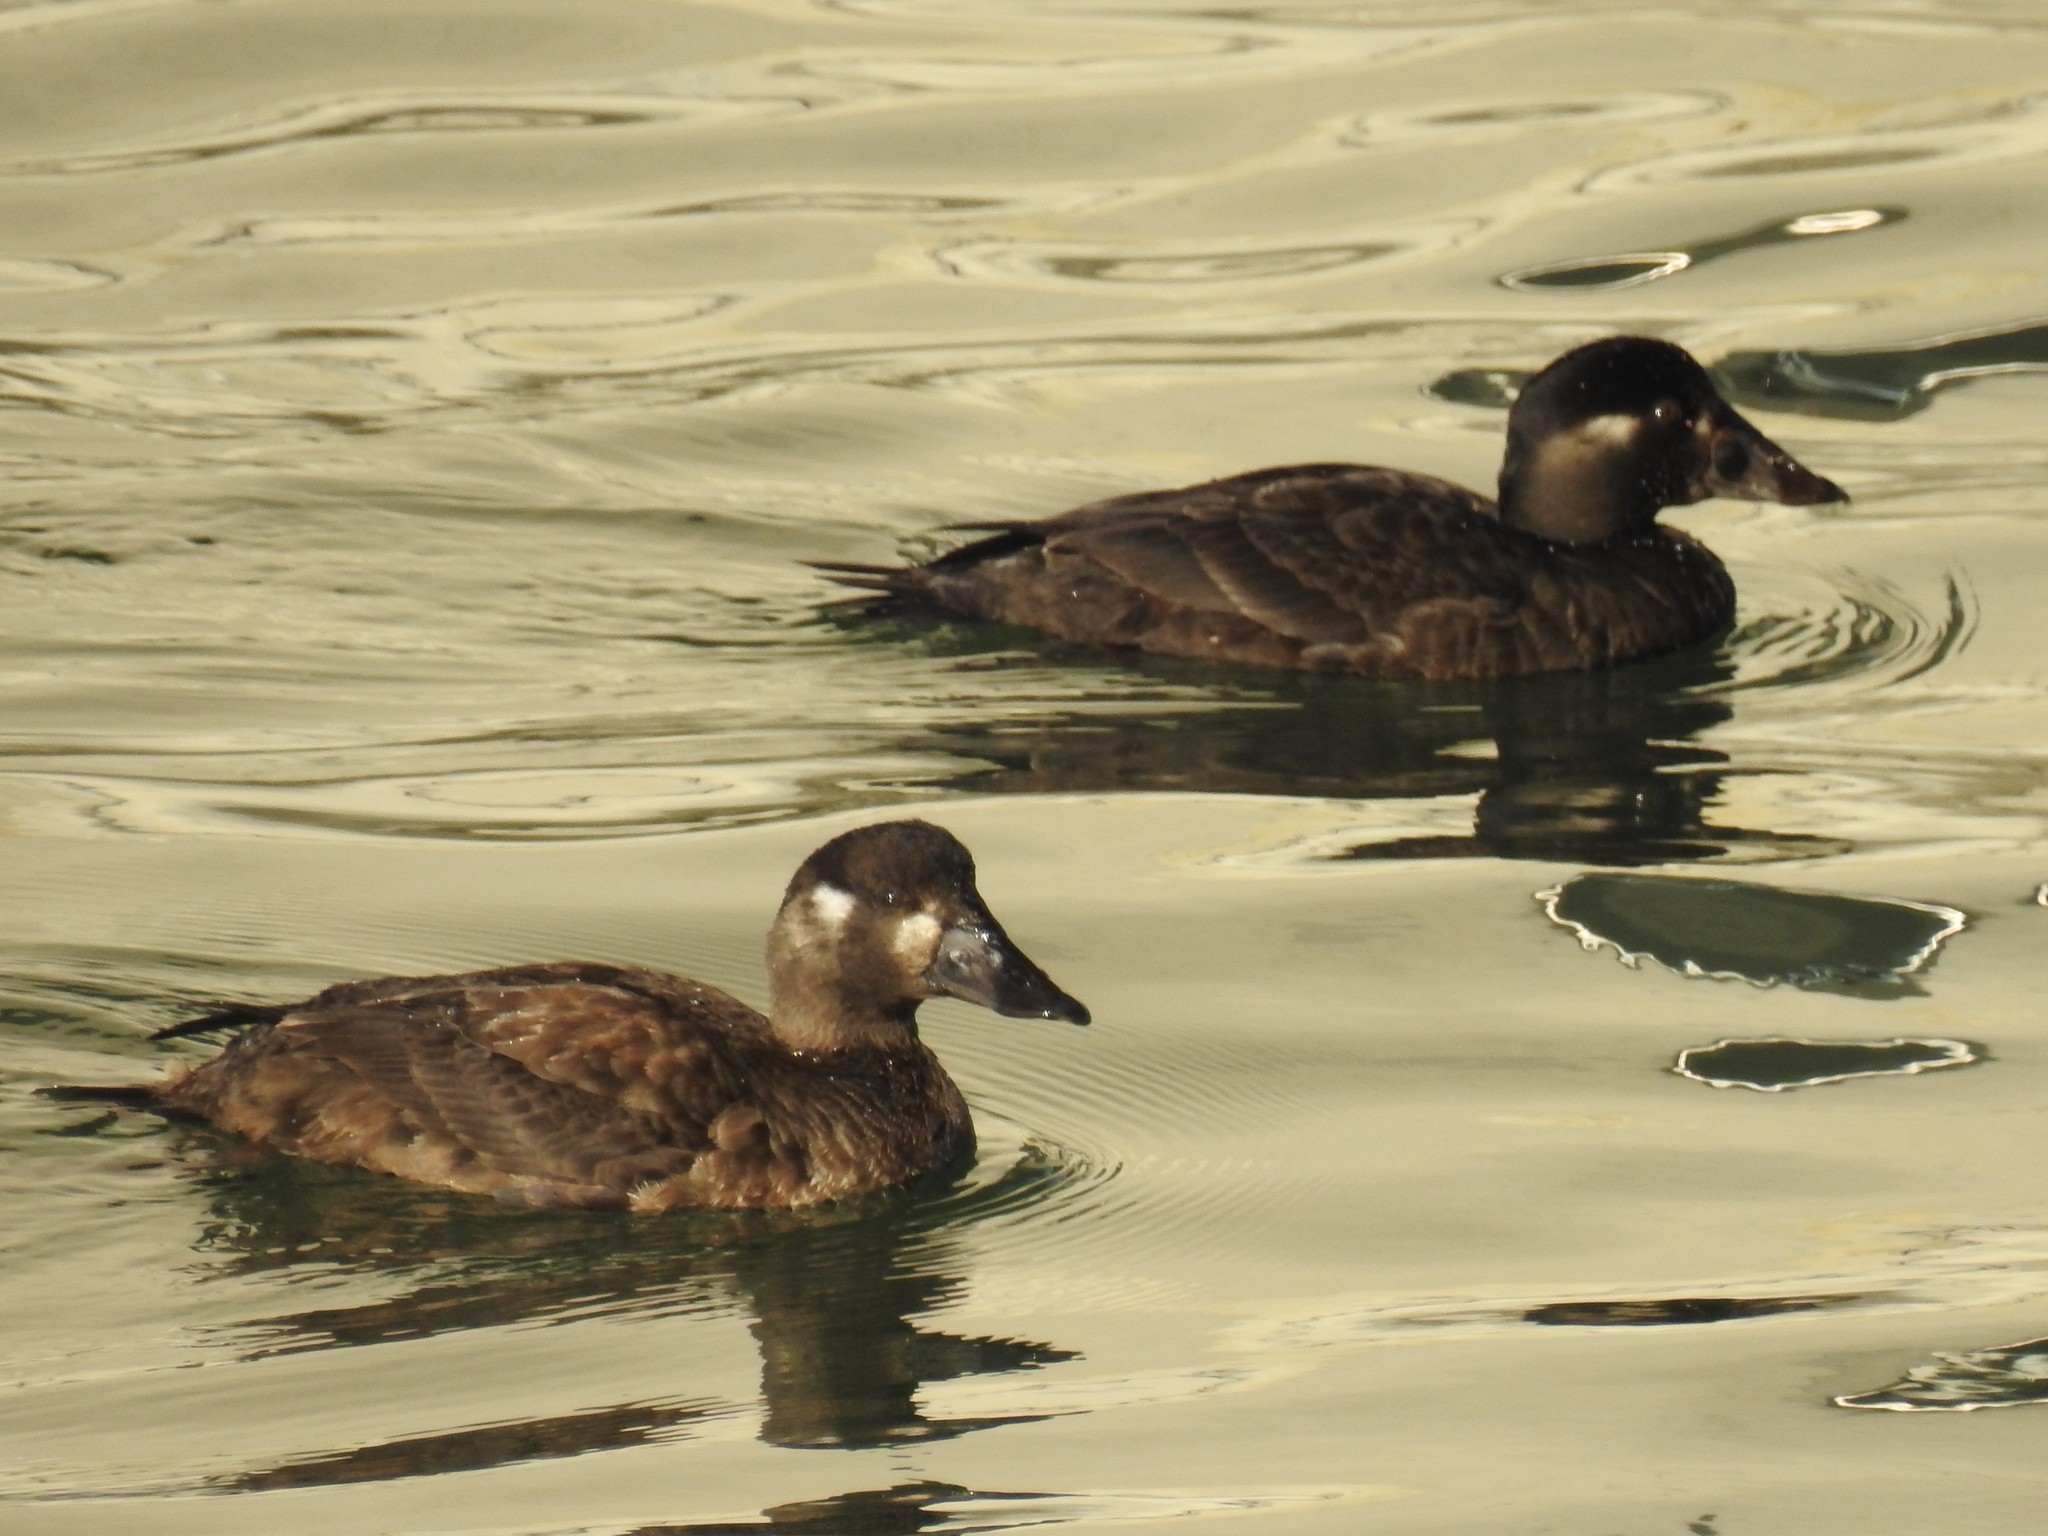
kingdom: Animalia
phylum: Chordata
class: Aves
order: Anseriformes
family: Anatidae
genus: Melanitta
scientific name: Melanitta perspicillata
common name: Surf scoter
